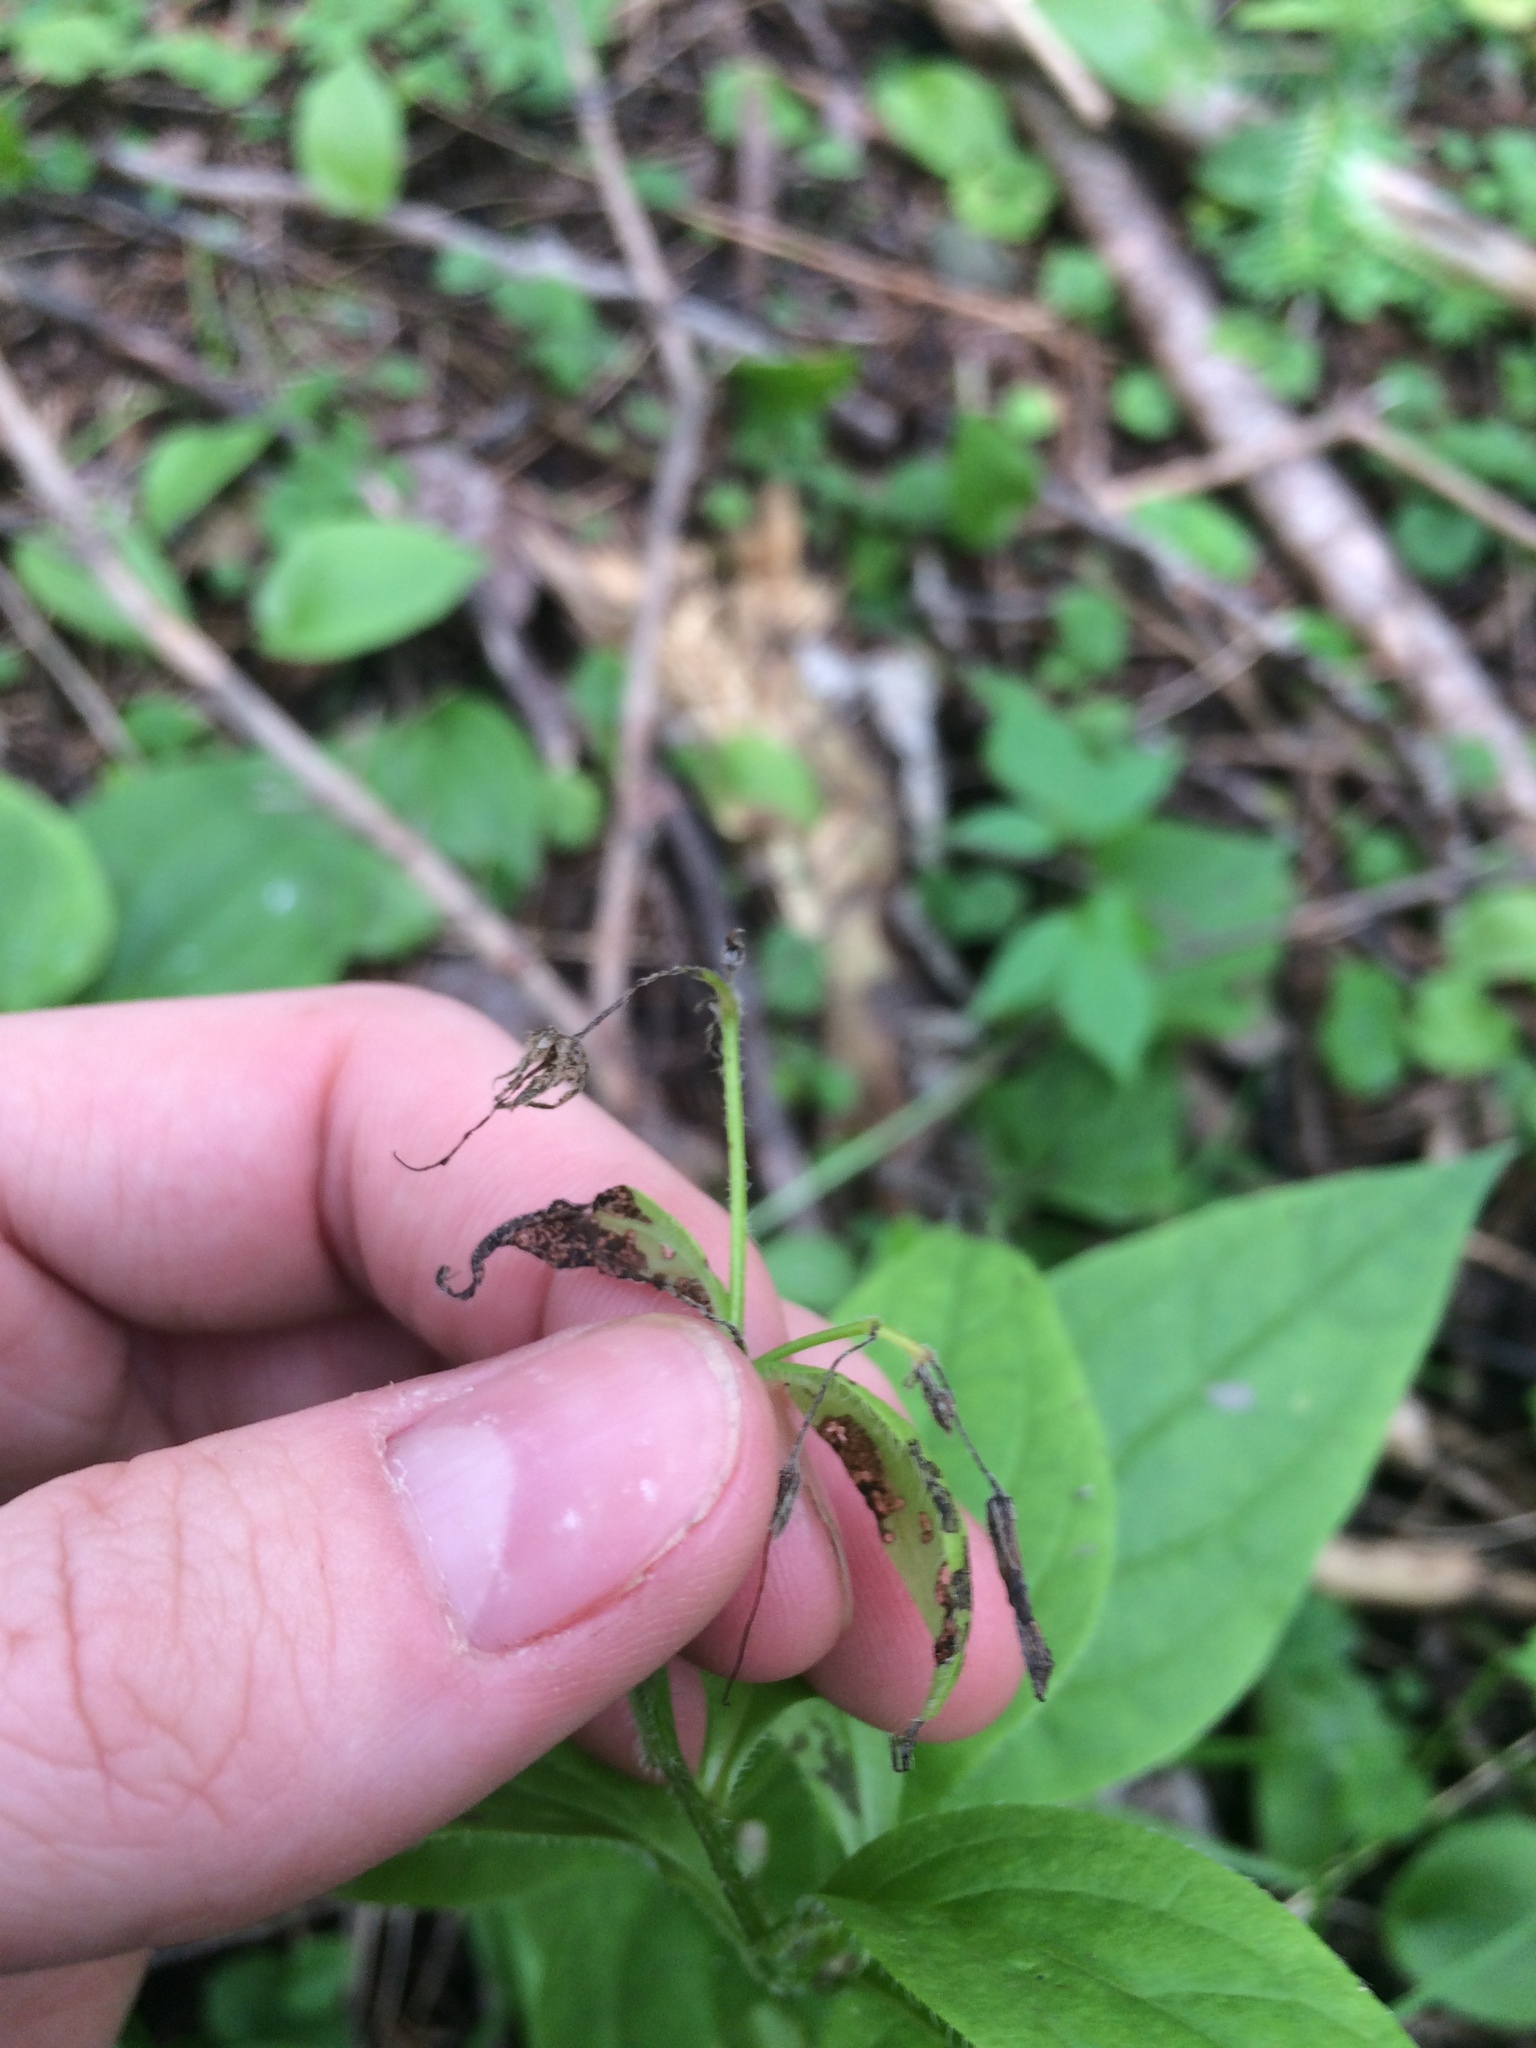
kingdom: Plantae
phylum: Tracheophyta
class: Magnoliopsida
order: Boraginales
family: Boraginaceae
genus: Mertensia
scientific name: Mertensia paniculata
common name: Panicled bluebells
